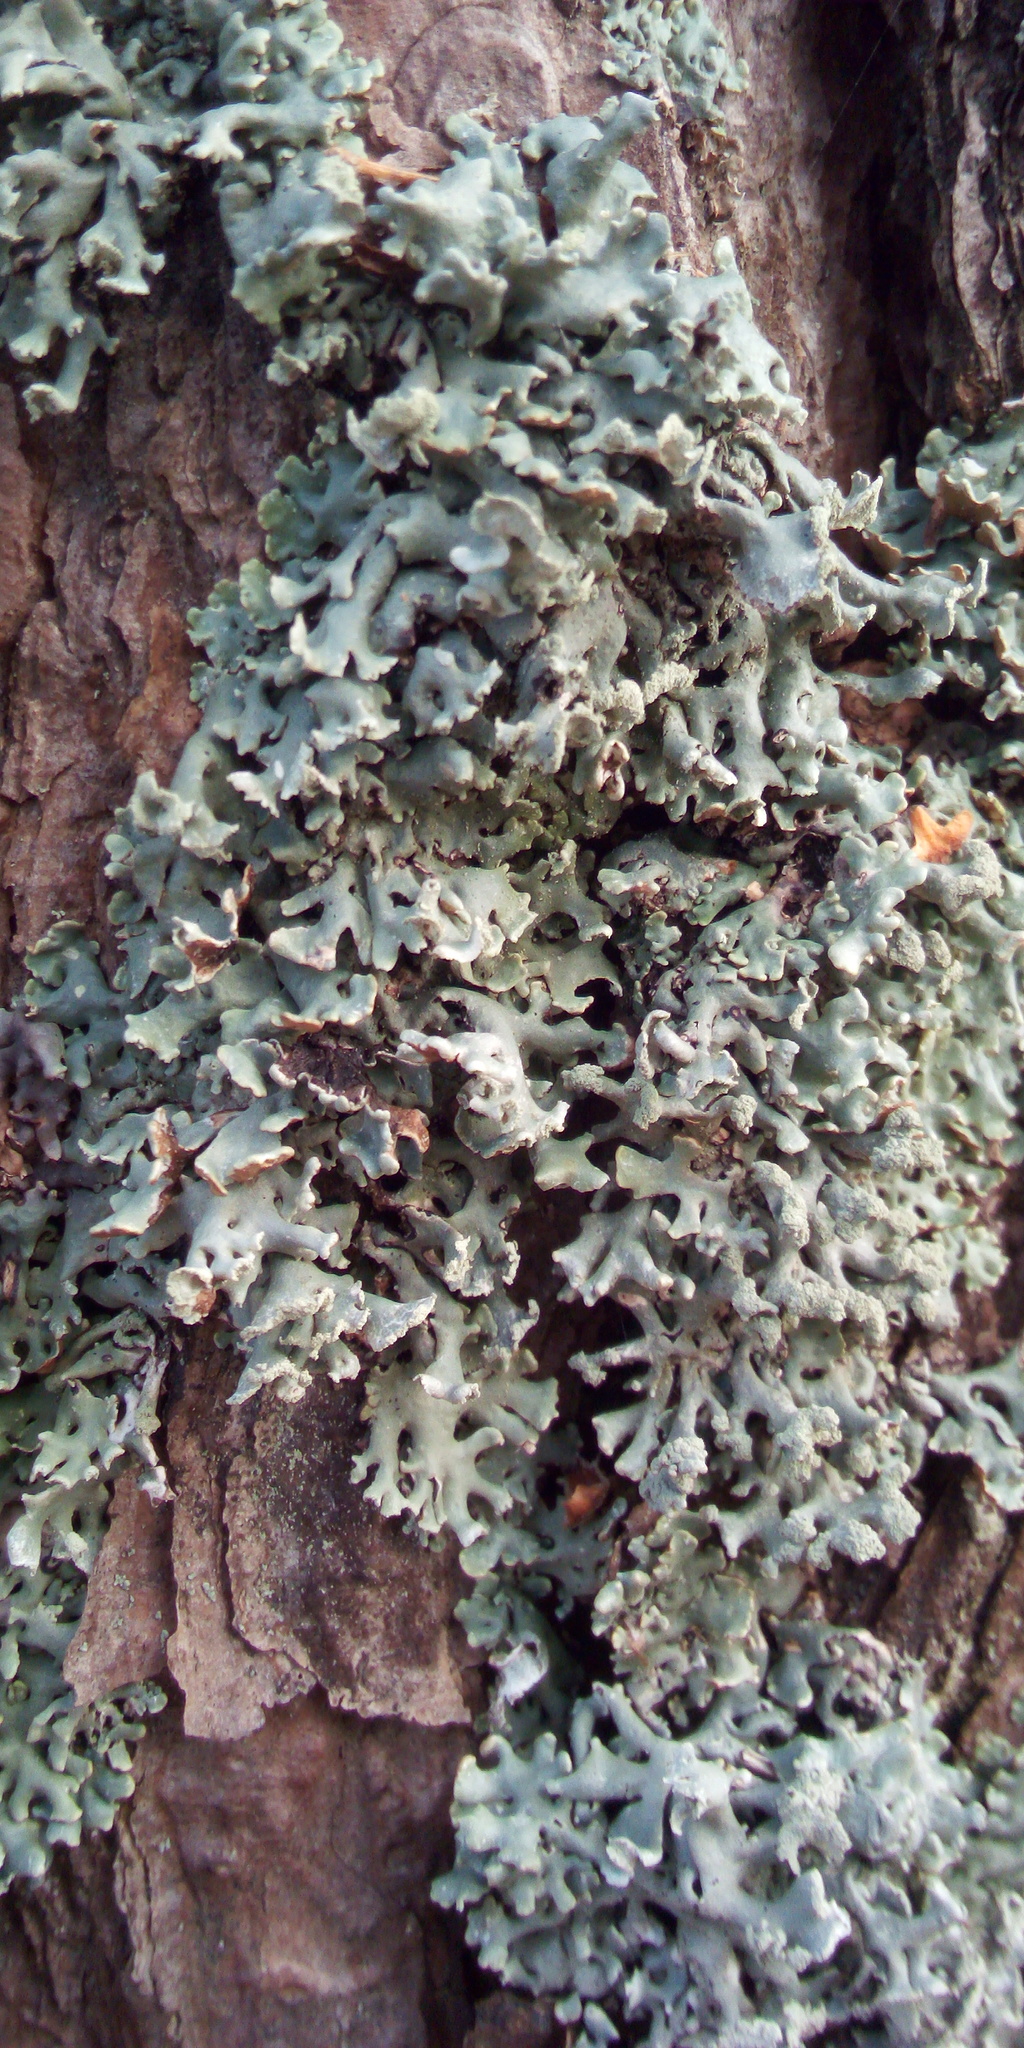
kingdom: Fungi
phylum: Ascomycota
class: Lecanoromycetes
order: Lecanorales
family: Parmeliaceae
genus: Hypogymnia
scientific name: Hypogymnia physodes
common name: Dark crottle
